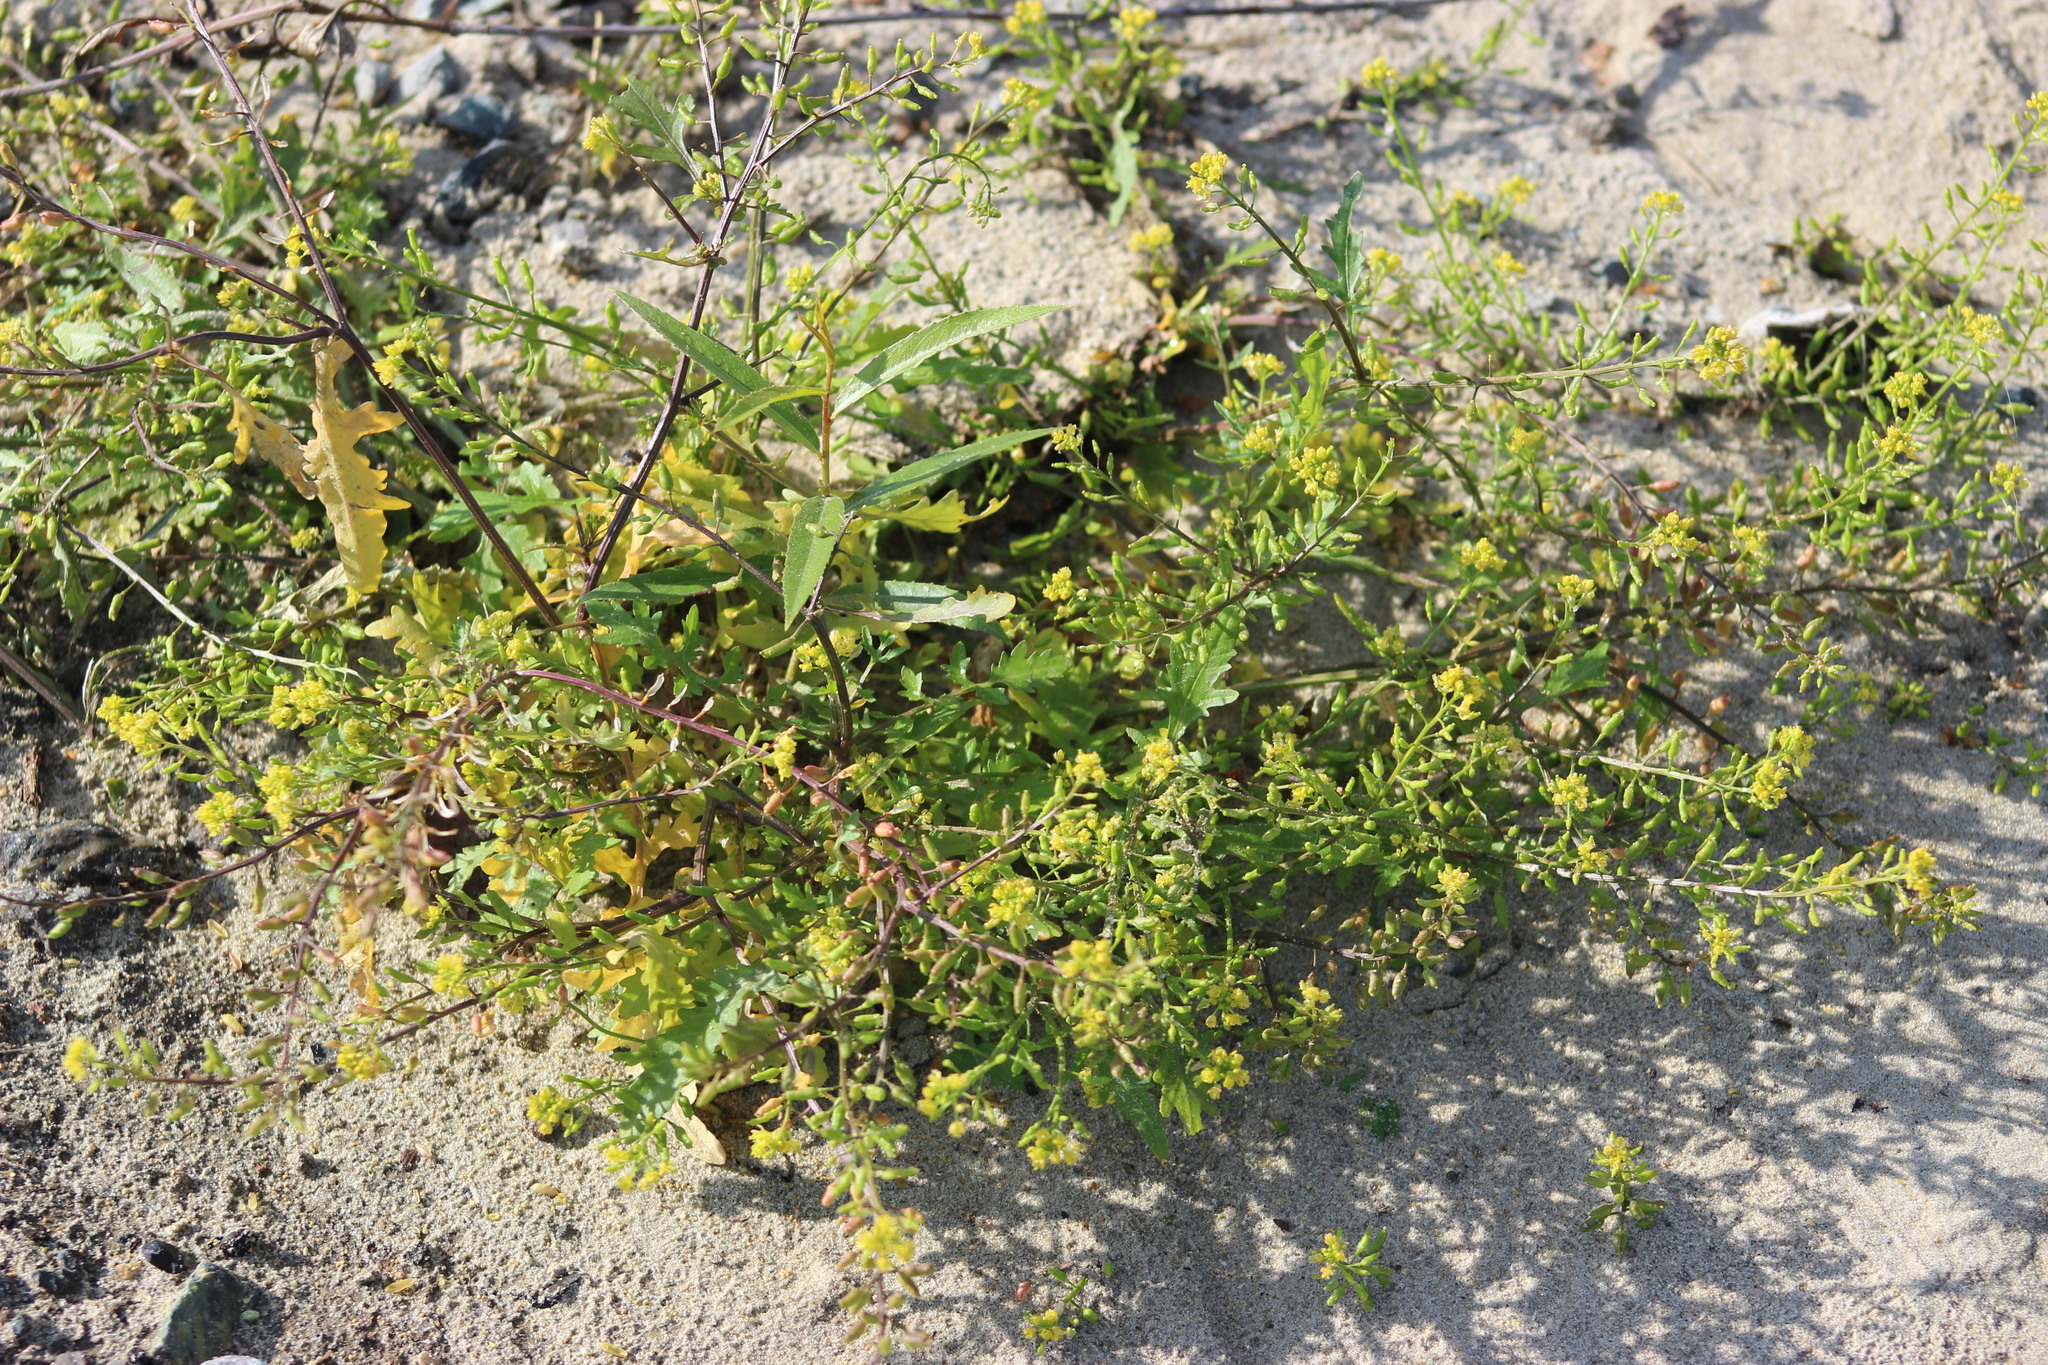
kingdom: Plantae
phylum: Tracheophyta
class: Magnoliopsida
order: Brassicales
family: Brassicaceae
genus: Rorippa
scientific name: Rorippa palustris
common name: Marsh yellow-cress
